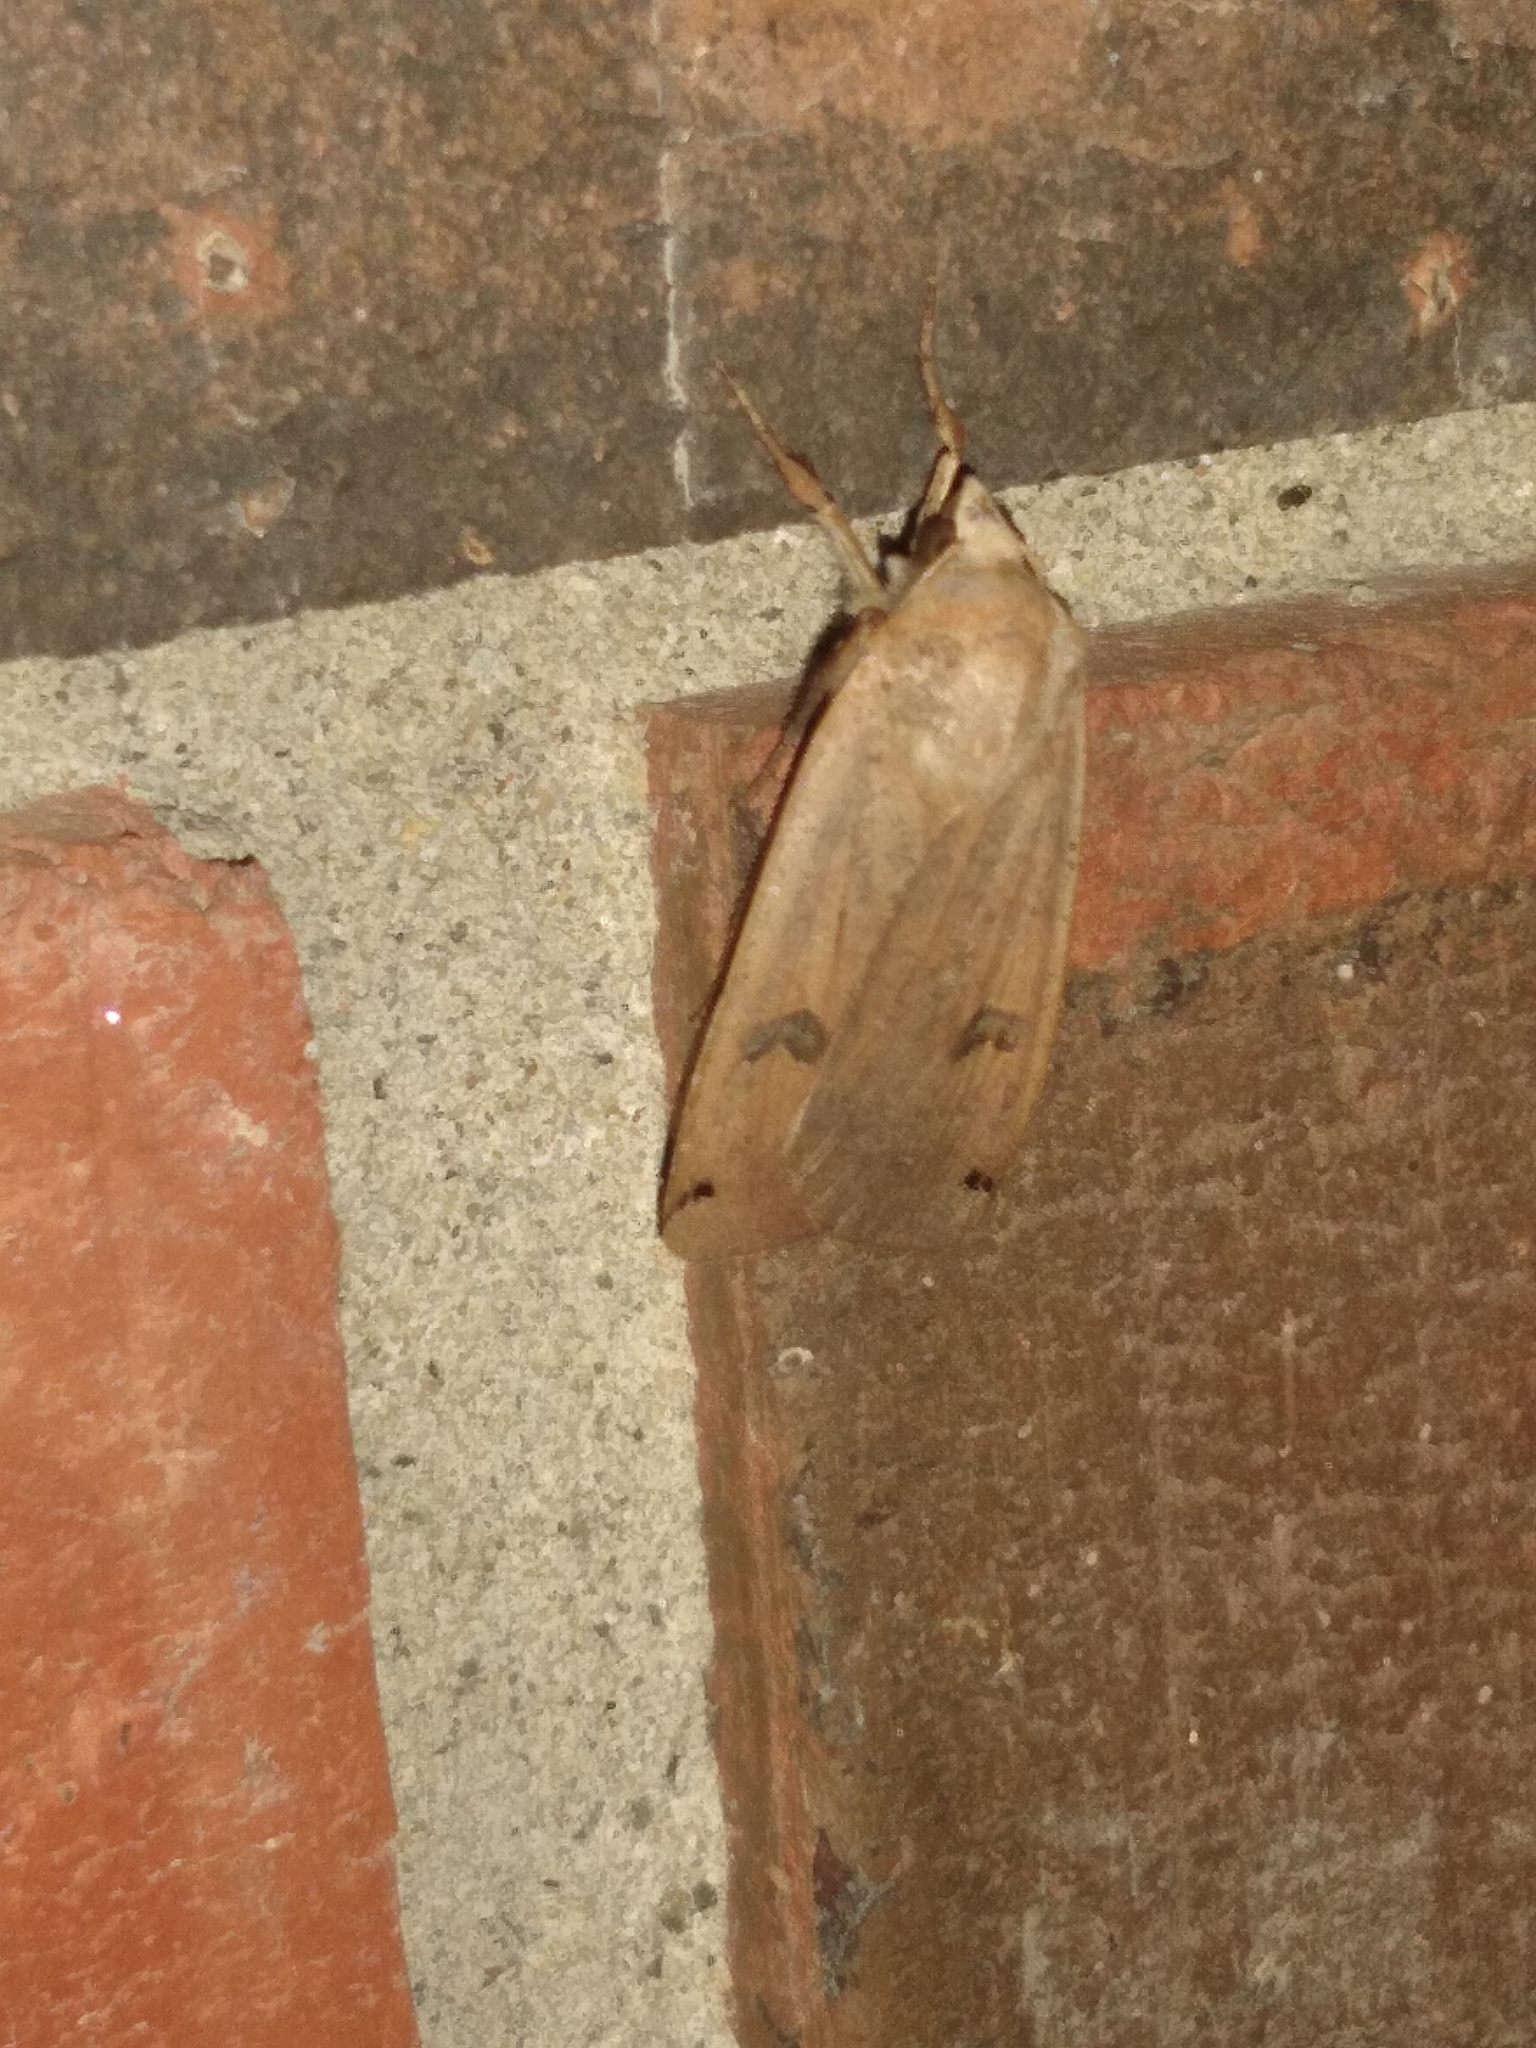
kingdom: Animalia
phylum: Arthropoda
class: Insecta
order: Lepidoptera
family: Noctuidae
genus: Noctua
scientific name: Noctua pronuba
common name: Large yellow underwing
